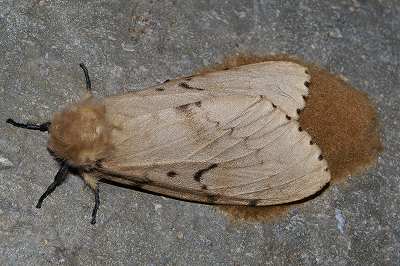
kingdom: Animalia
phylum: Arthropoda
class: Insecta
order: Lepidoptera
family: Erebidae
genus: Lymantria
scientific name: Lymantria dispar
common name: Gypsy moth
